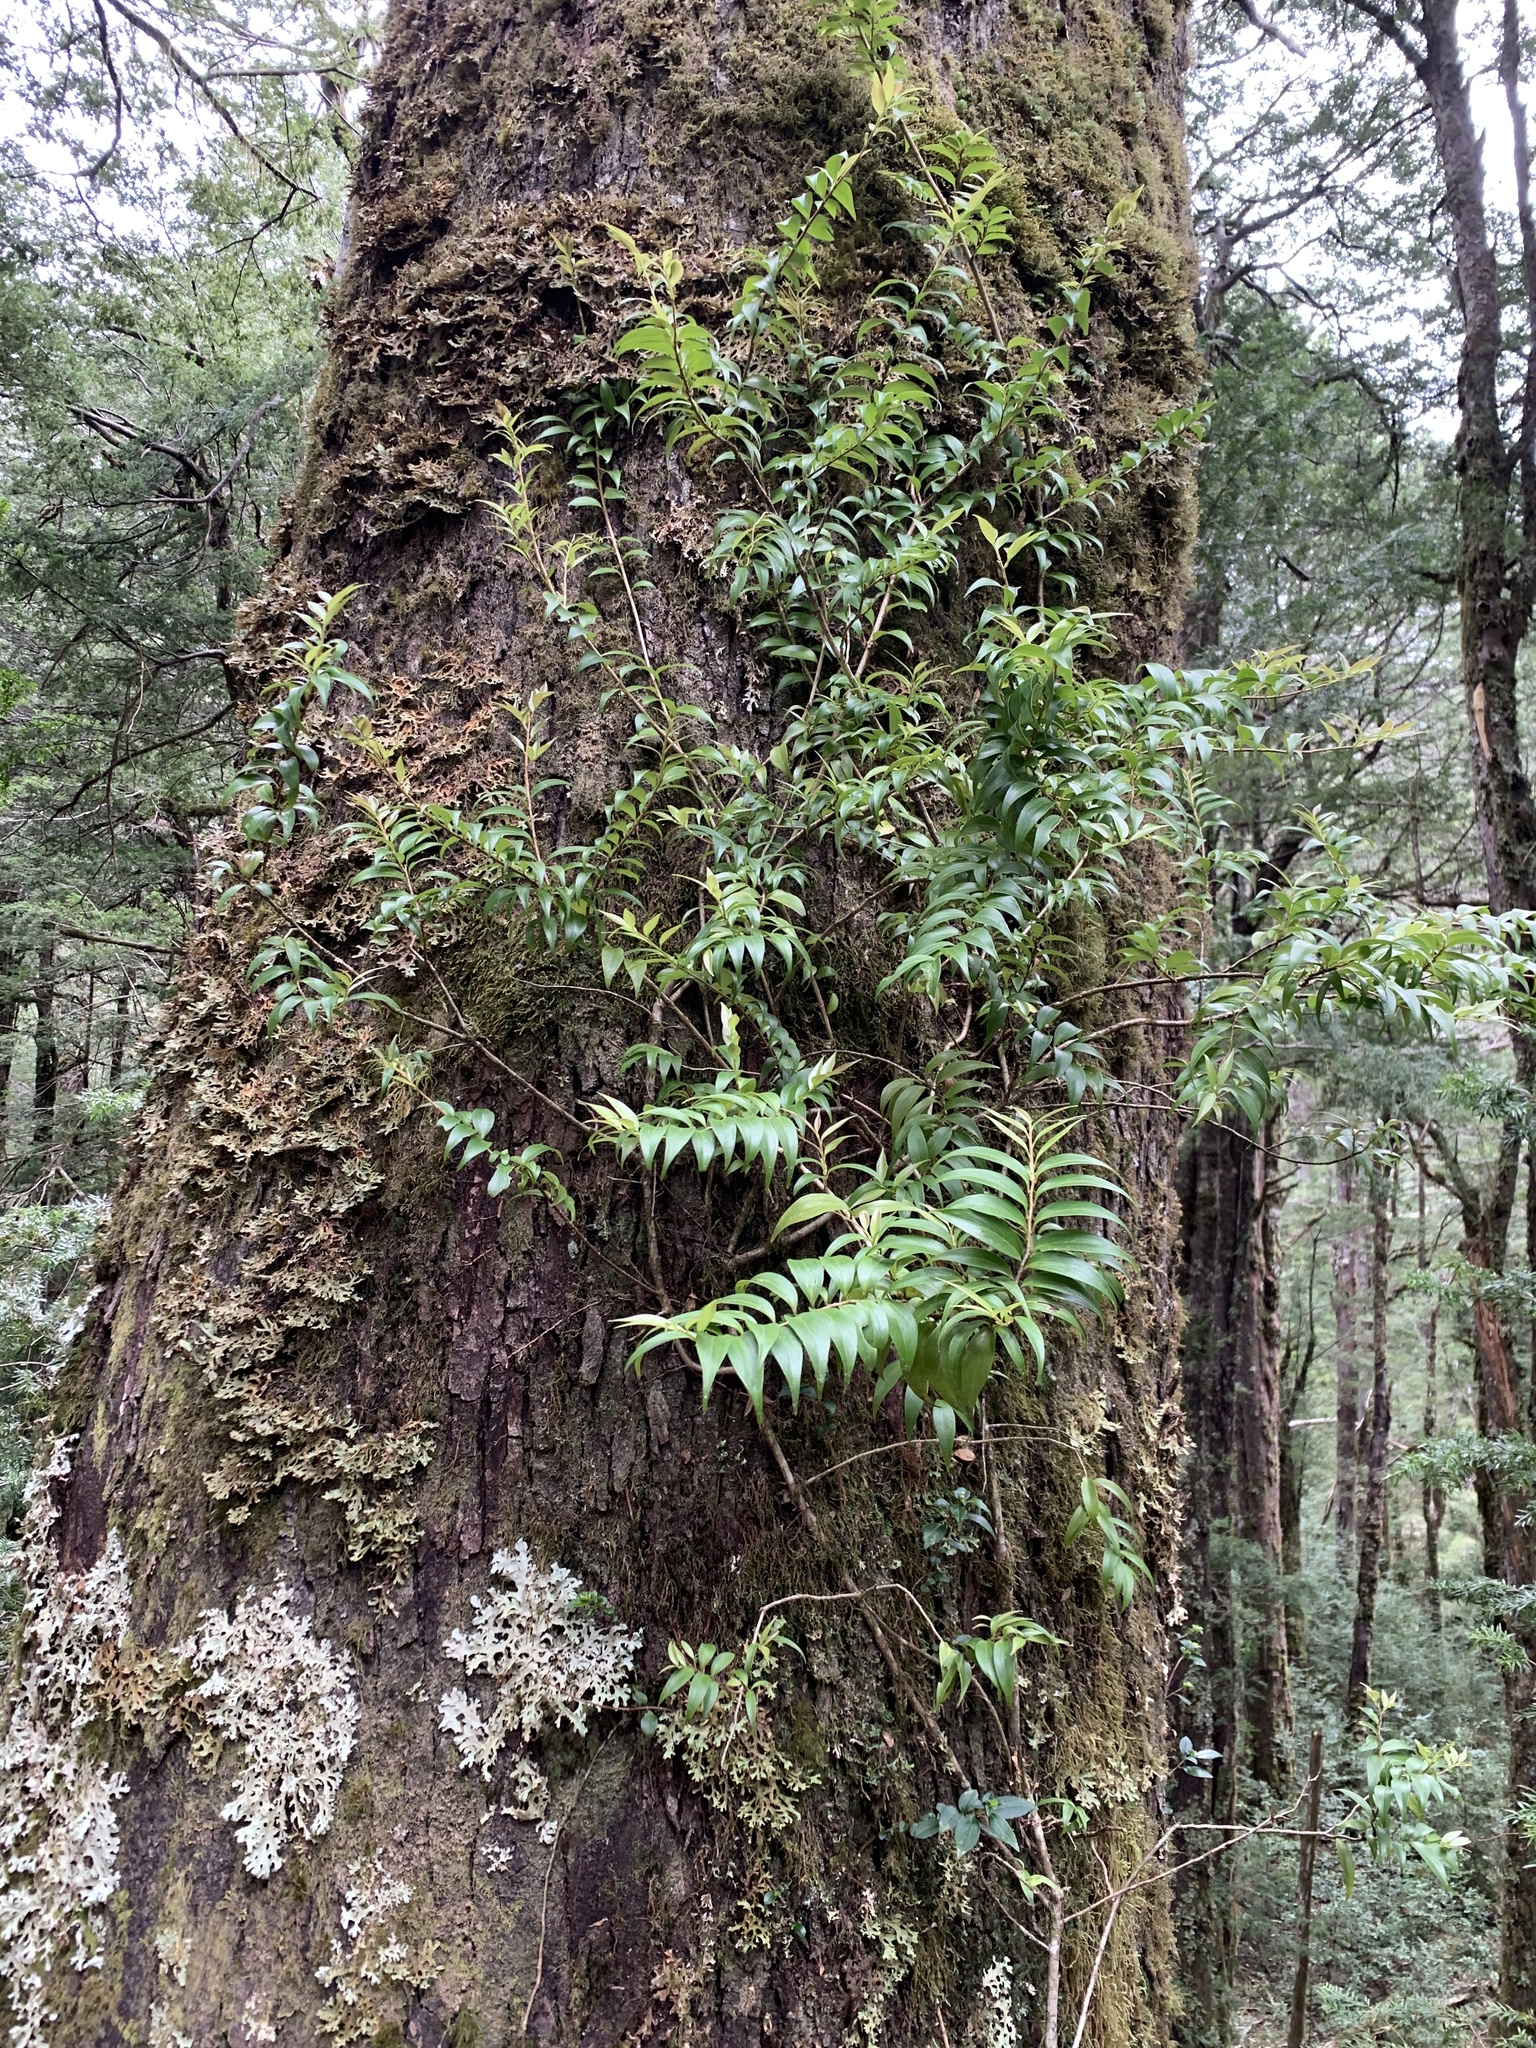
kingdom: Plantae
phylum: Tracheophyta
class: Liliopsida
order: Liliales
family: Alstroemeriaceae
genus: Luzuriaga
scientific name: Luzuriaga polyphylla
